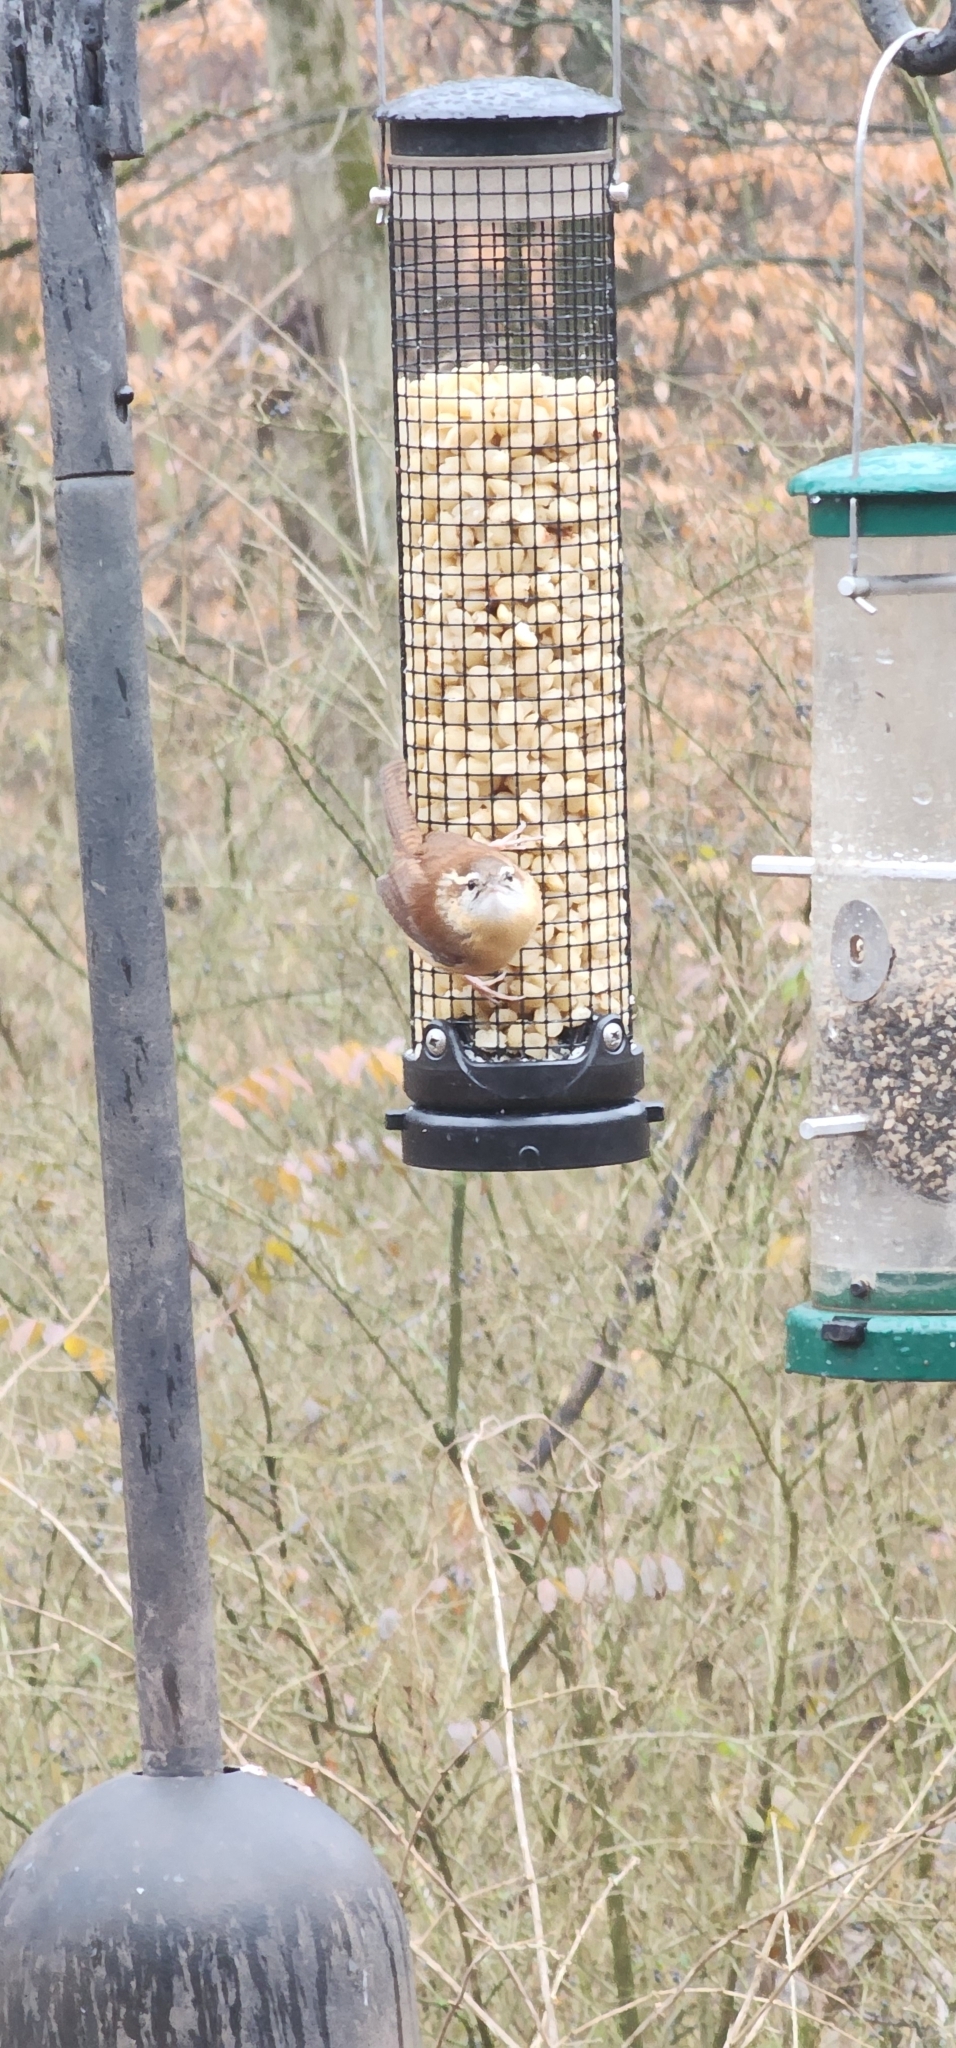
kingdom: Animalia
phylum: Chordata
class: Aves
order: Passeriformes
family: Troglodytidae
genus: Thryothorus
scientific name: Thryothorus ludovicianus
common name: Carolina wren
